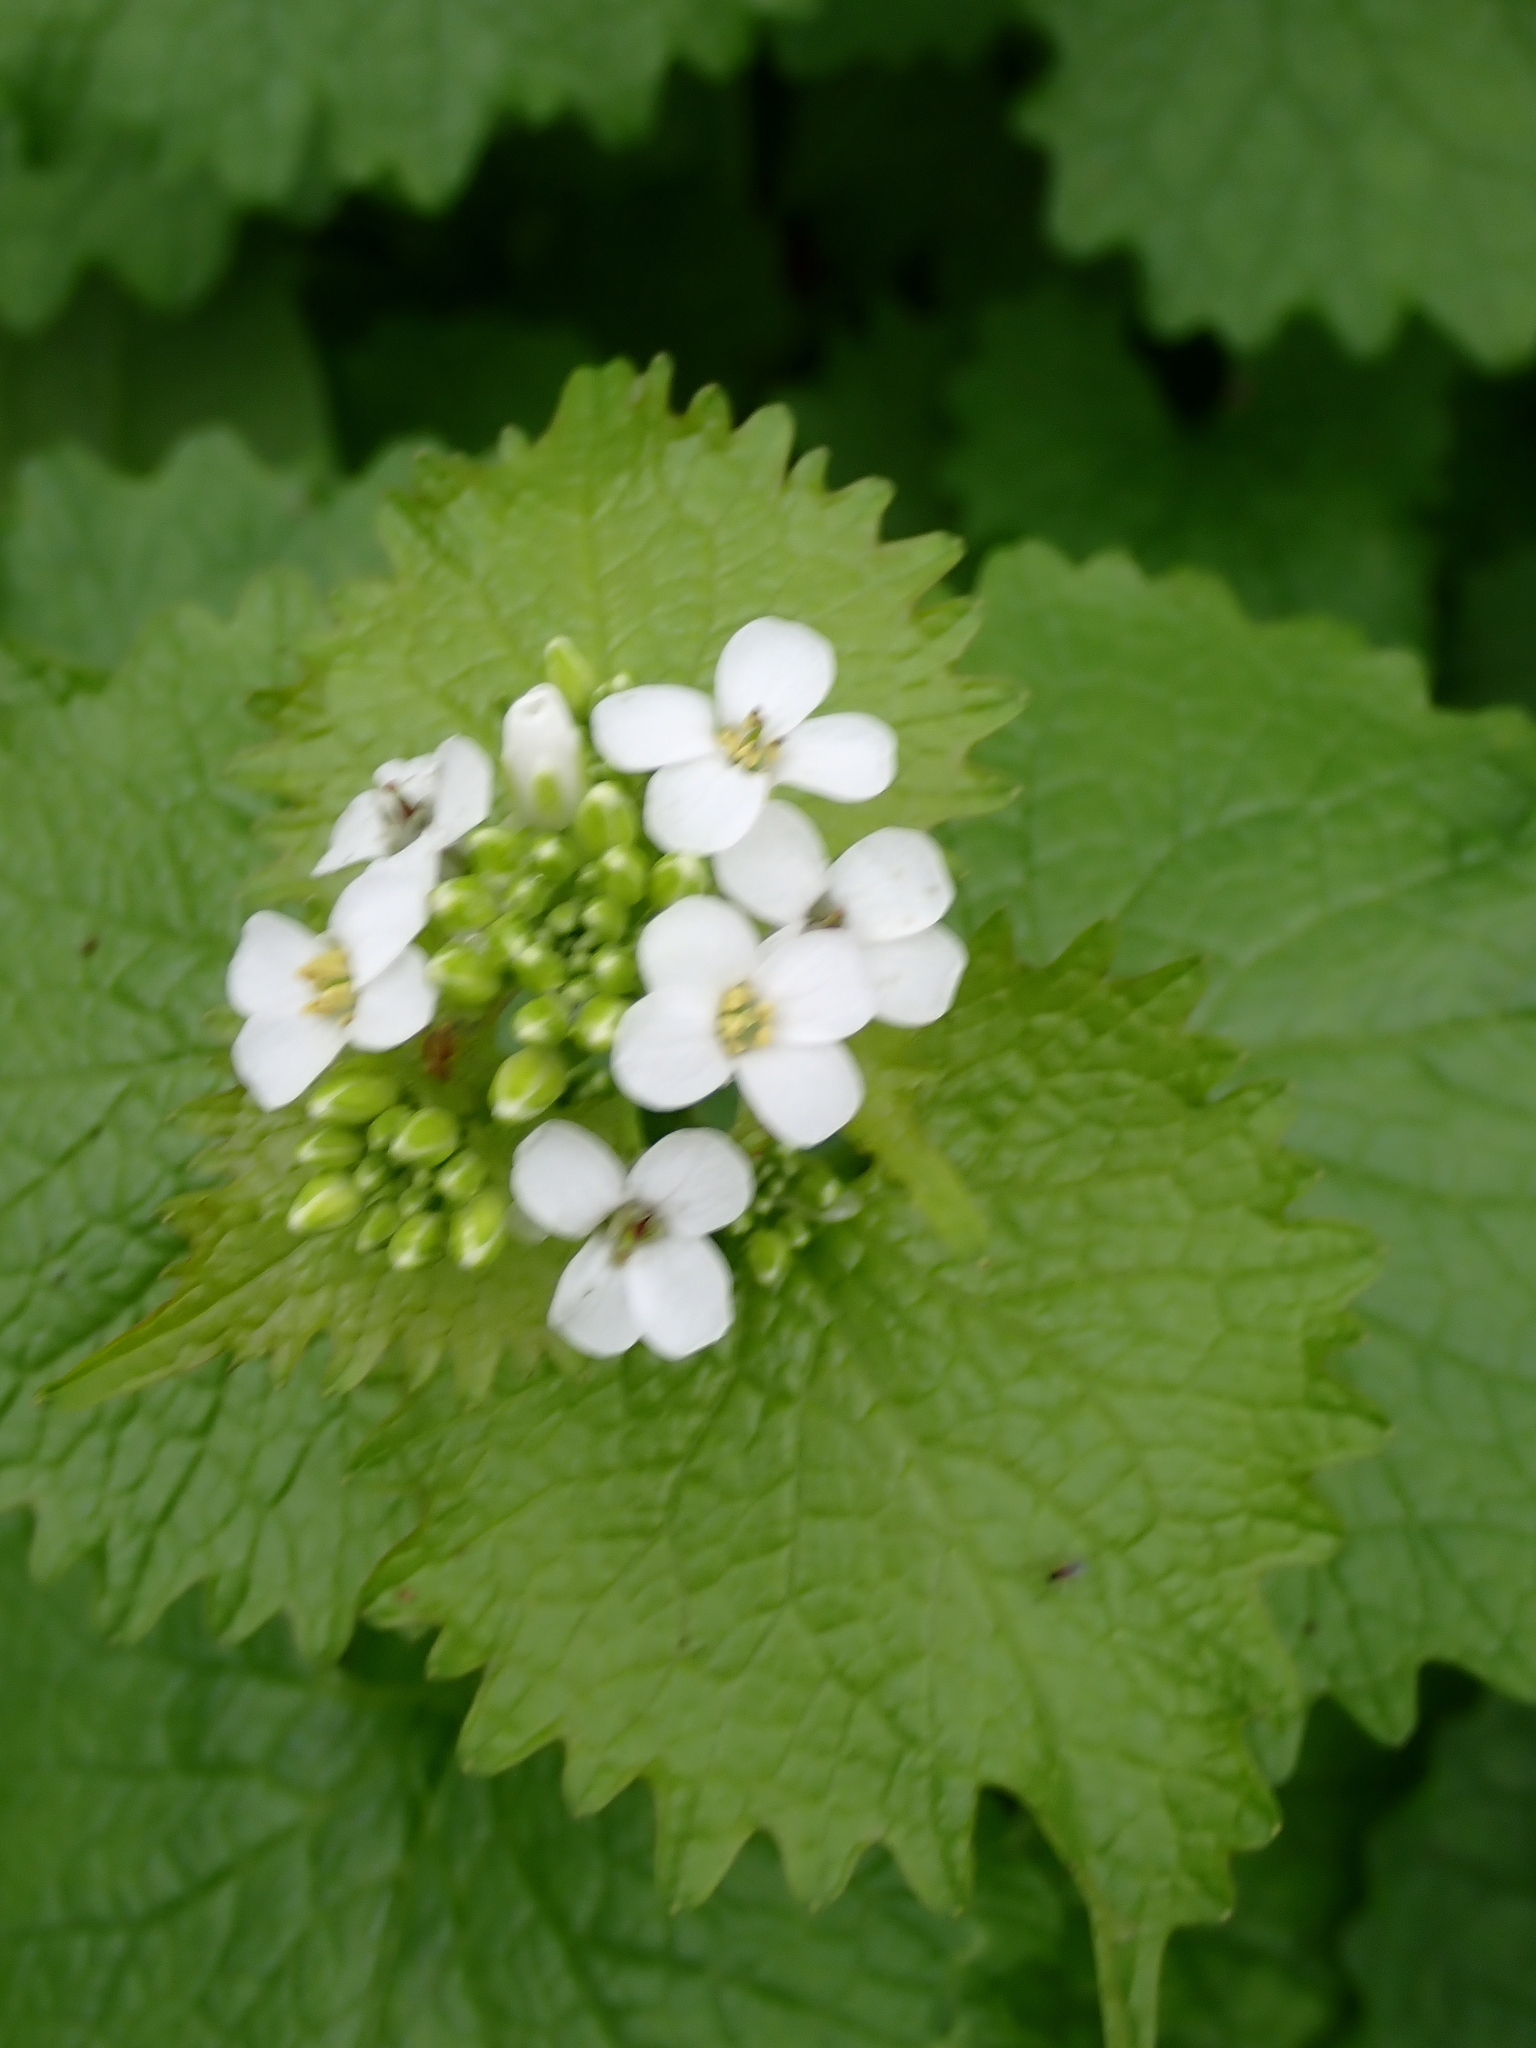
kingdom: Plantae
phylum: Tracheophyta
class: Magnoliopsida
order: Brassicales
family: Brassicaceae
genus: Alliaria
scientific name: Alliaria petiolata
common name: Garlic mustard
